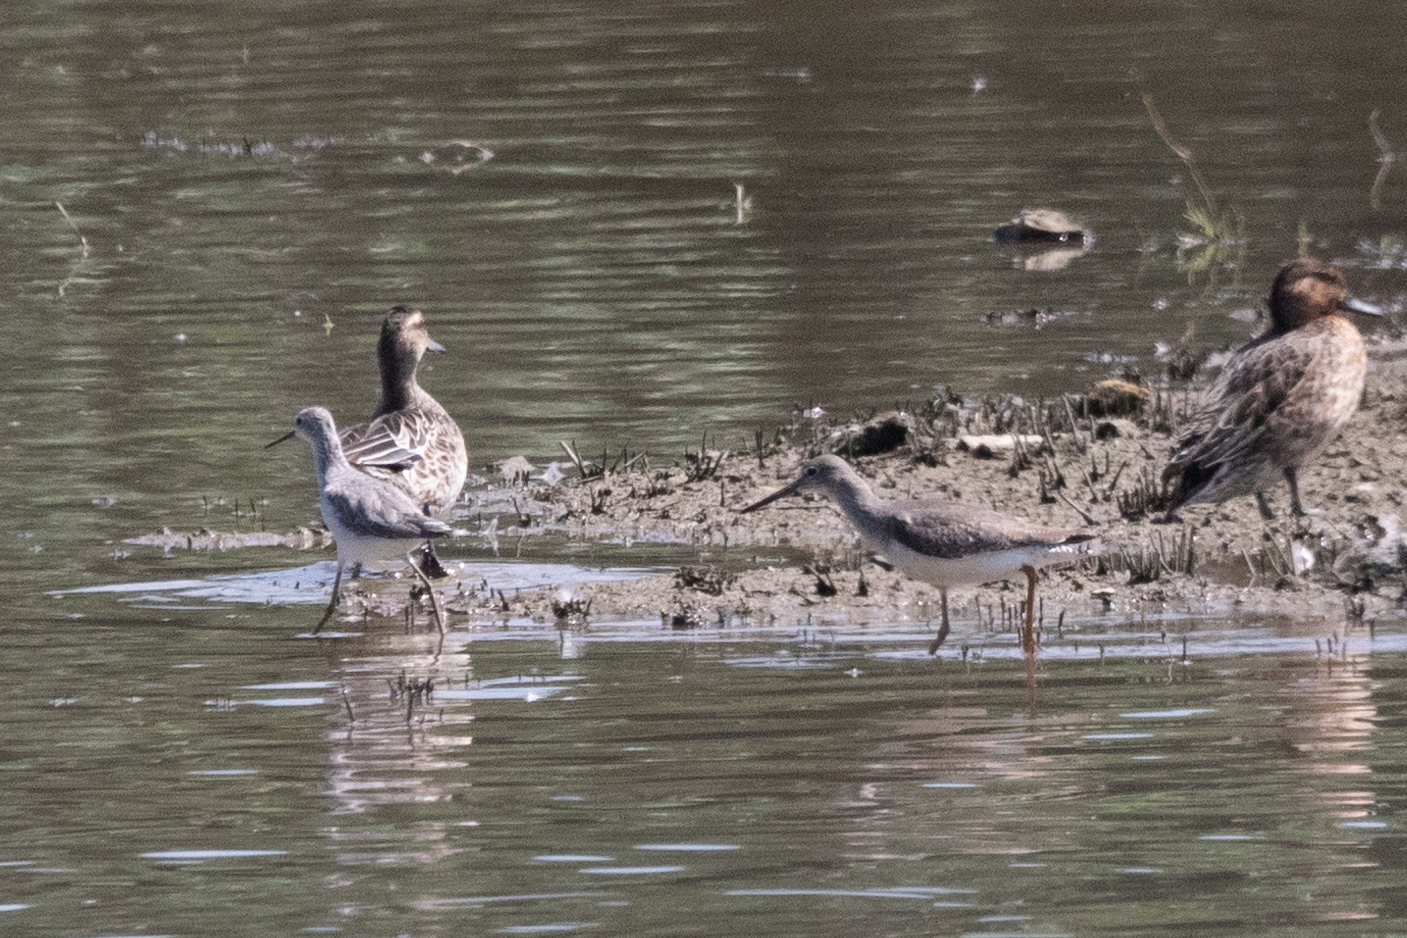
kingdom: Animalia
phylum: Chordata
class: Aves
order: Charadriiformes
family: Scolopacidae
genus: Tringa
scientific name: Tringa totanus
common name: Common redshank
